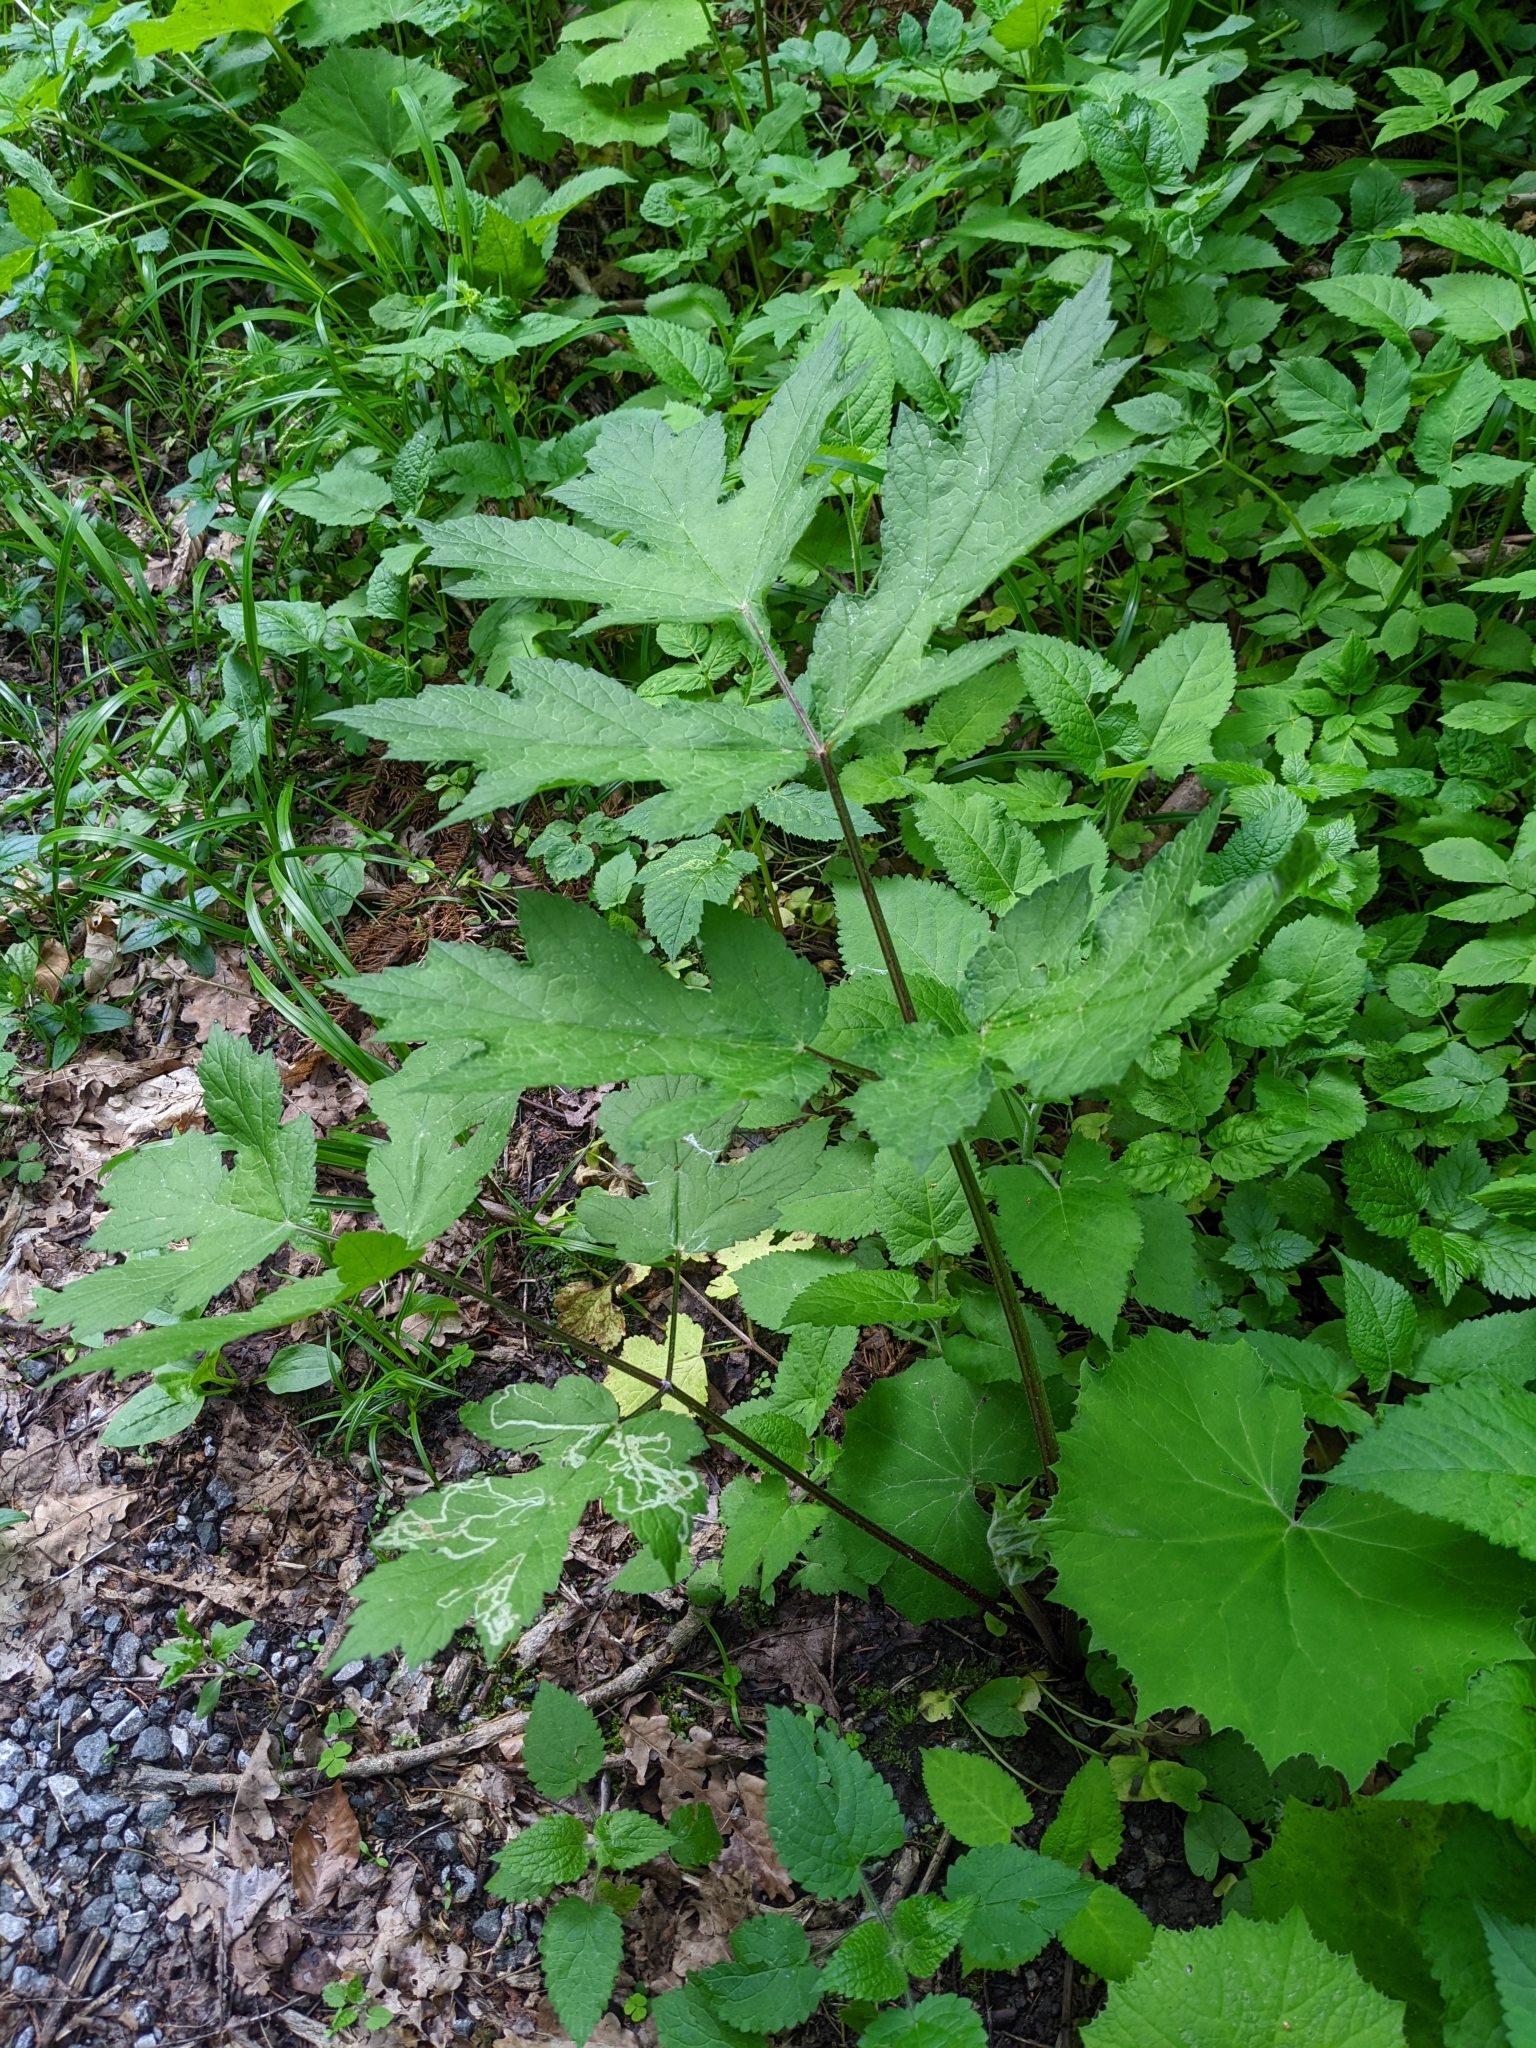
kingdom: Plantae
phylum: Tracheophyta
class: Magnoliopsida
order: Apiales
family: Apiaceae
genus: Heracleum
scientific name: Heracleum sphondylium
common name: Hogweed
